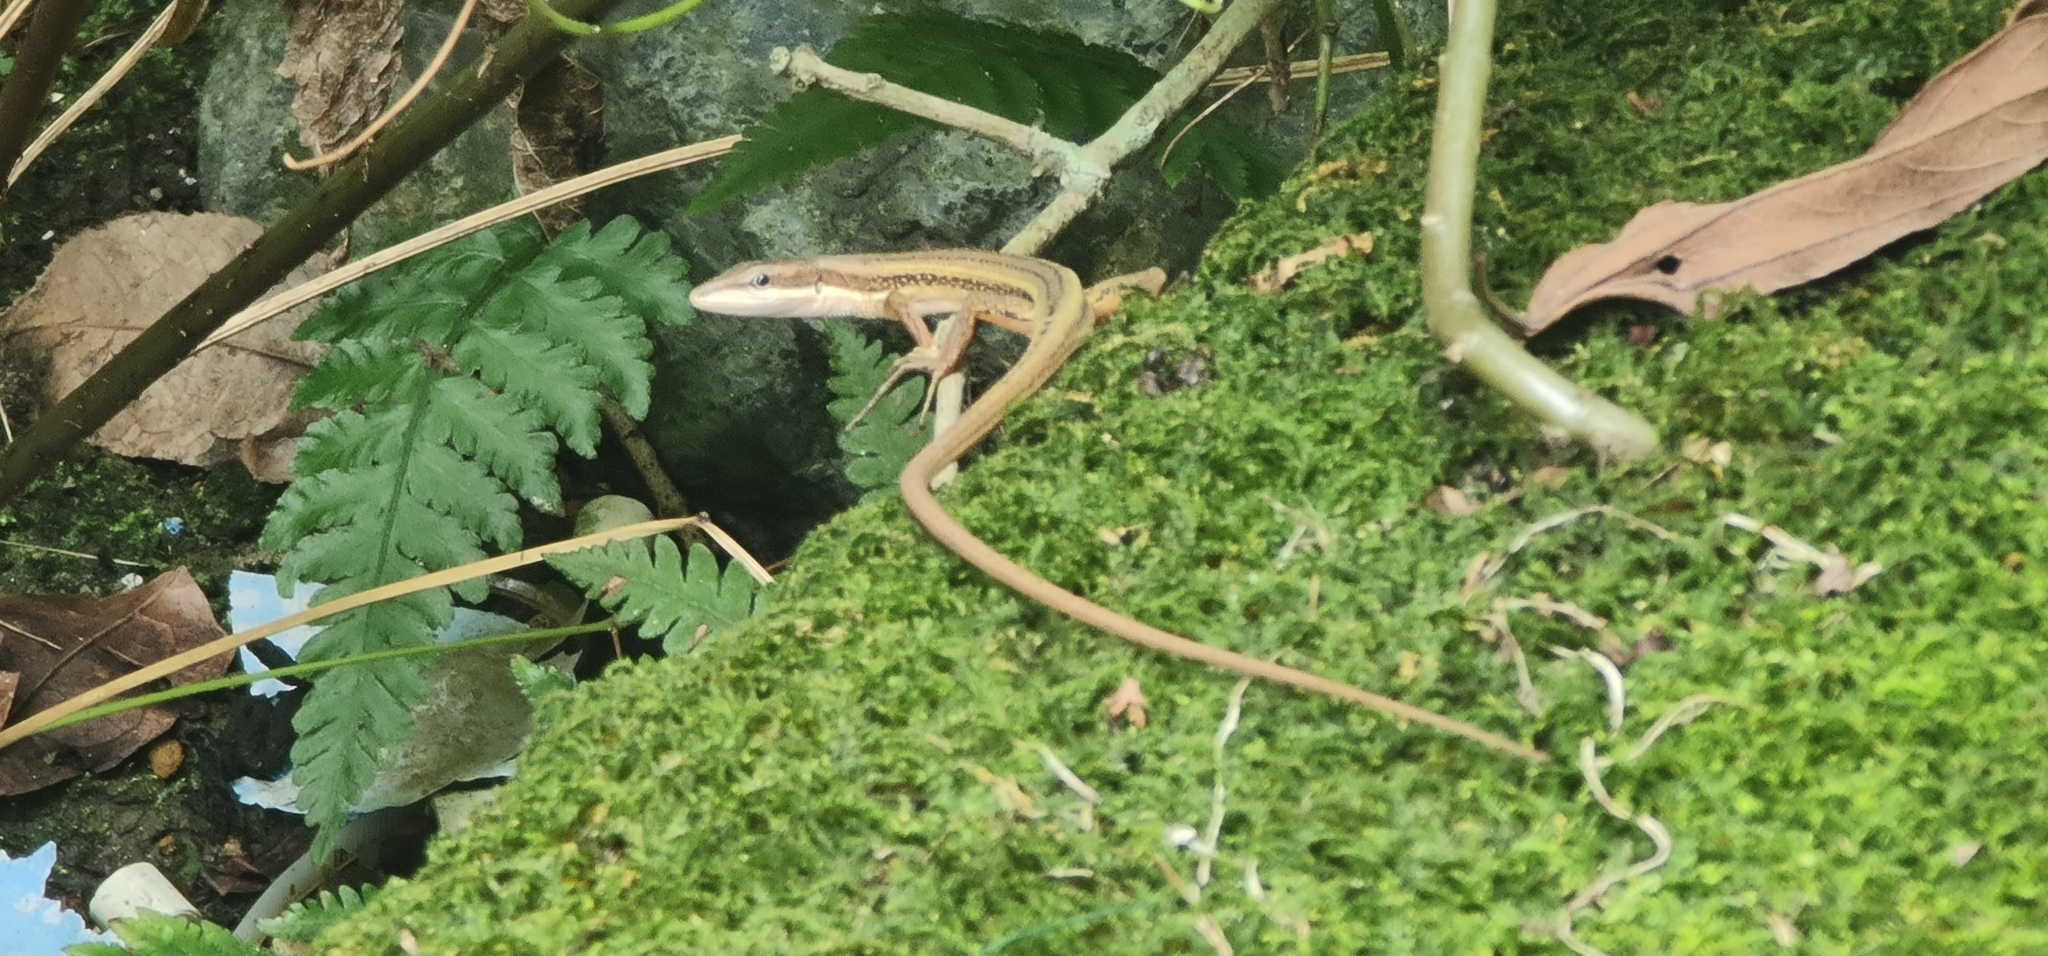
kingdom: Animalia
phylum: Chordata
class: Squamata
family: Lacertidae
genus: Takydromus
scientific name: Takydromus kuehnei
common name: Kuhne’s grass lizard
